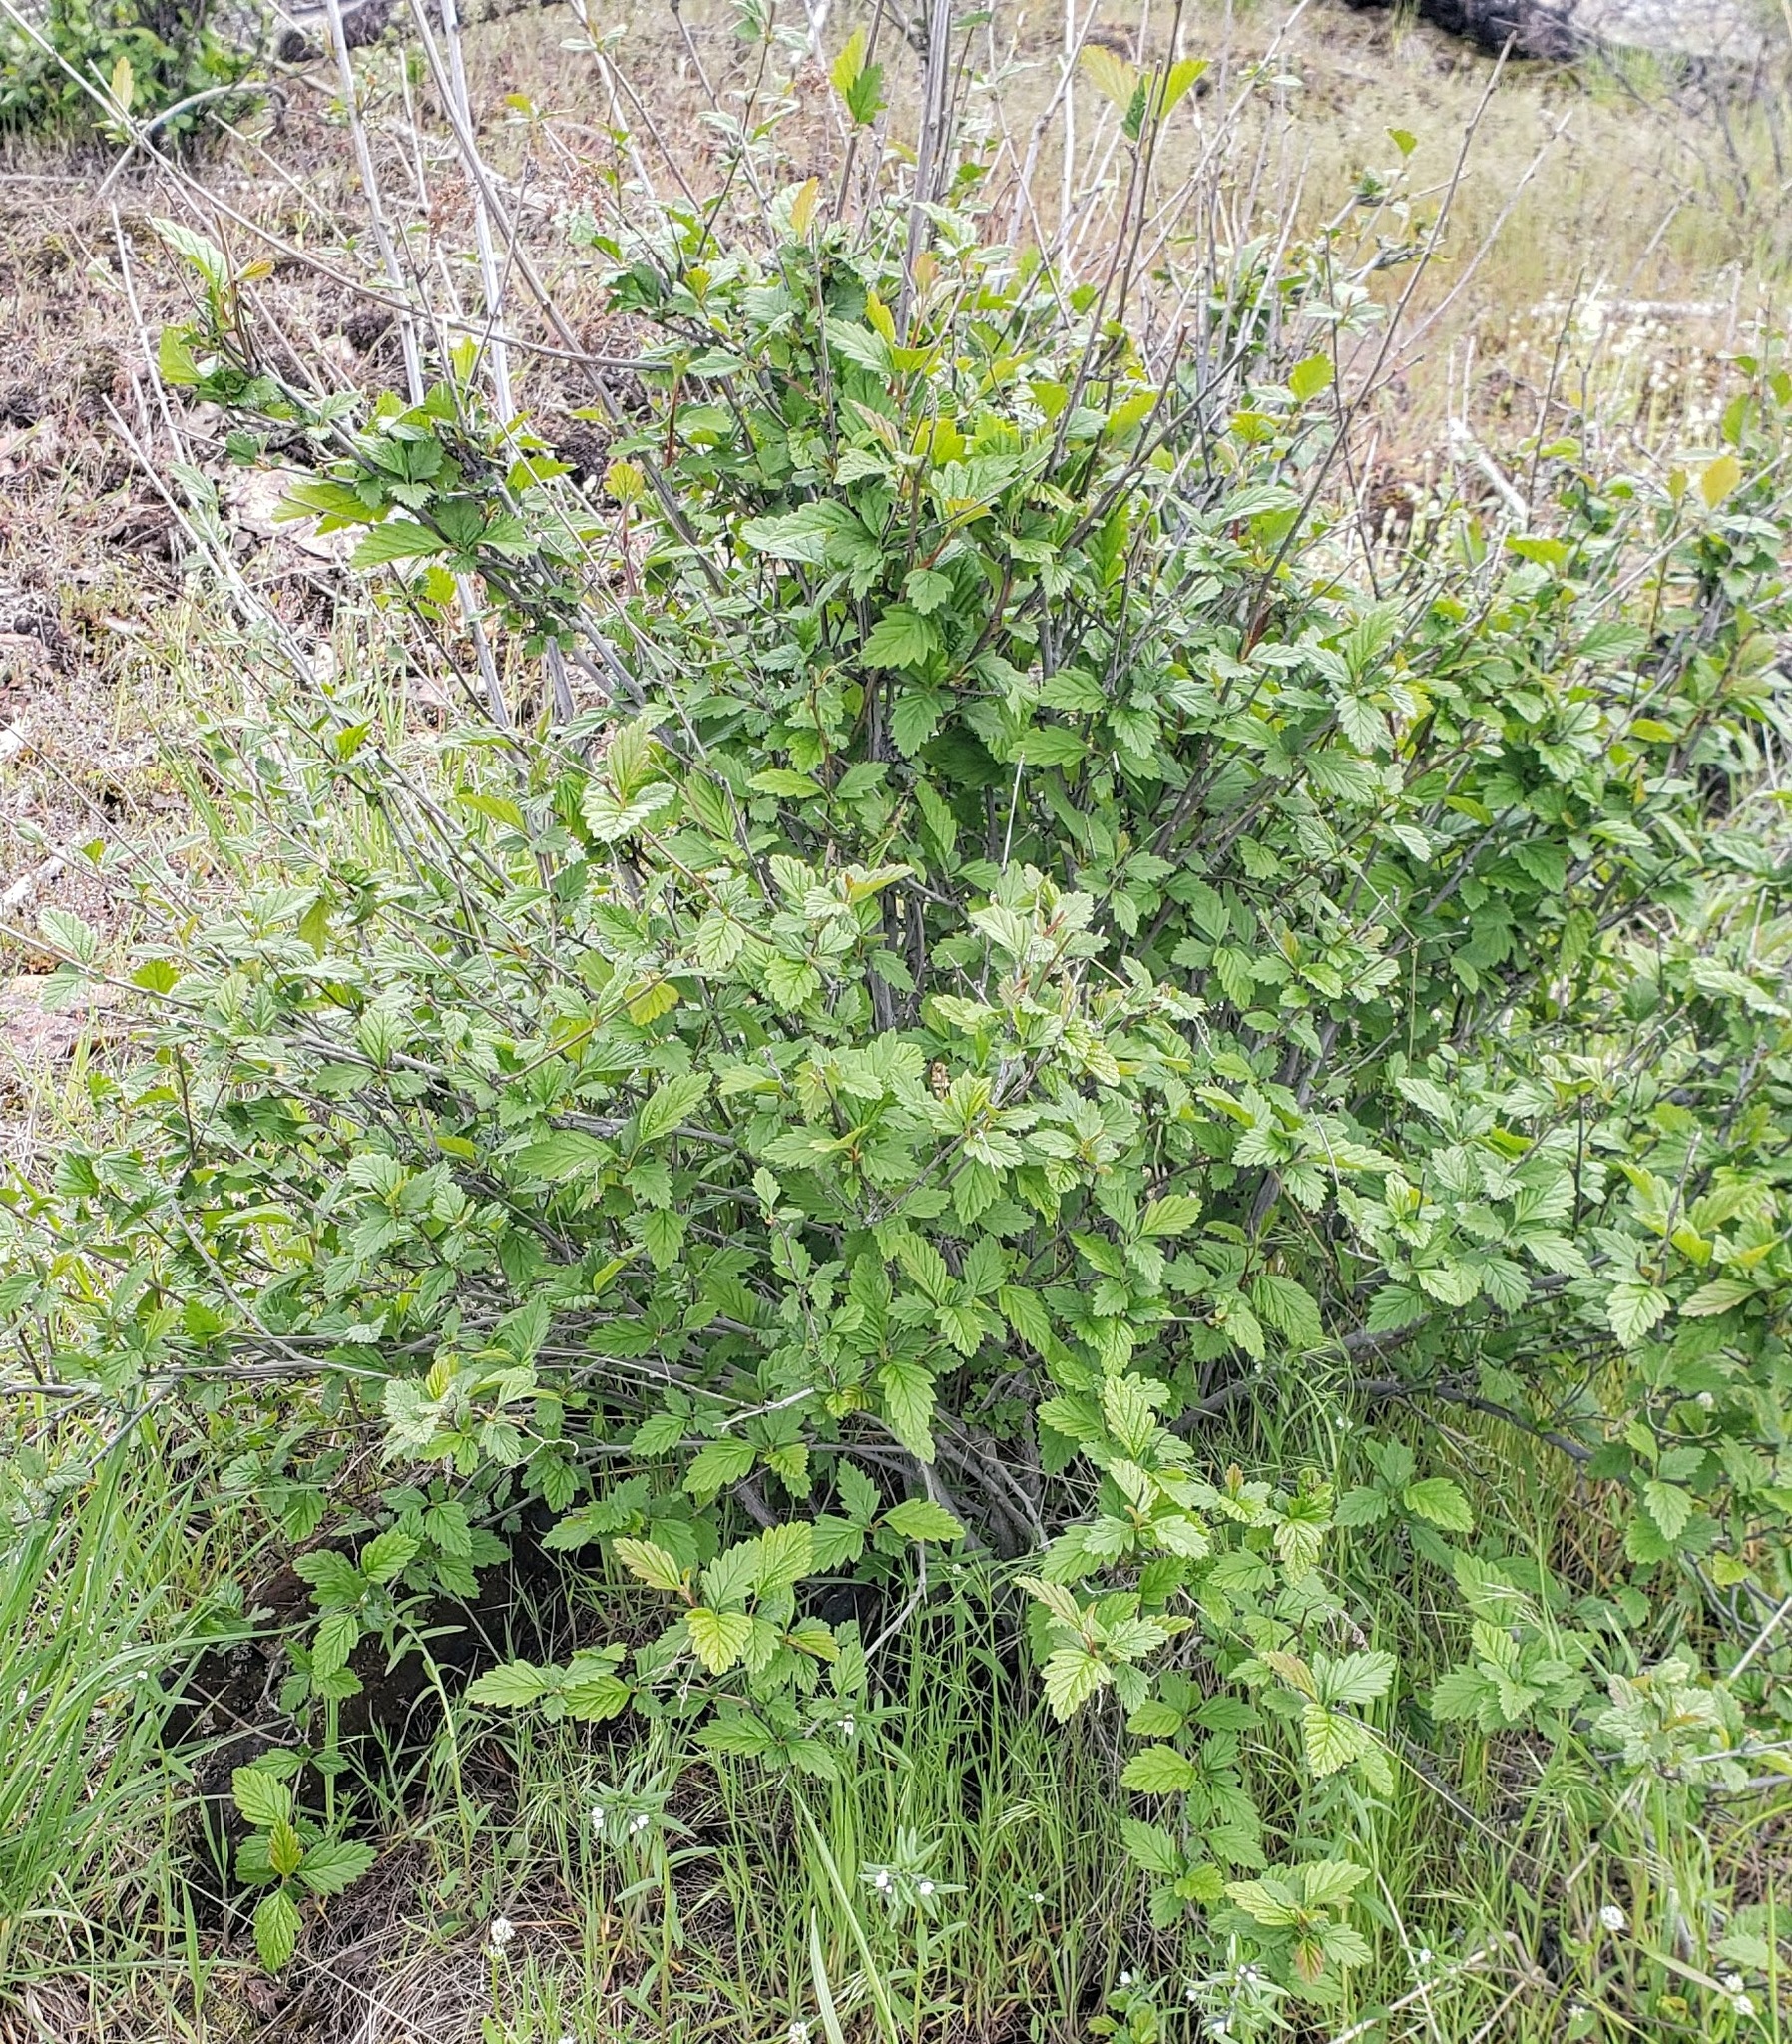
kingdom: Plantae
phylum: Tracheophyta
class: Magnoliopsida
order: Rosales
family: Rosaceae
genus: Holodiscus
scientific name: Holodiscus discolor
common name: Oceanspray
